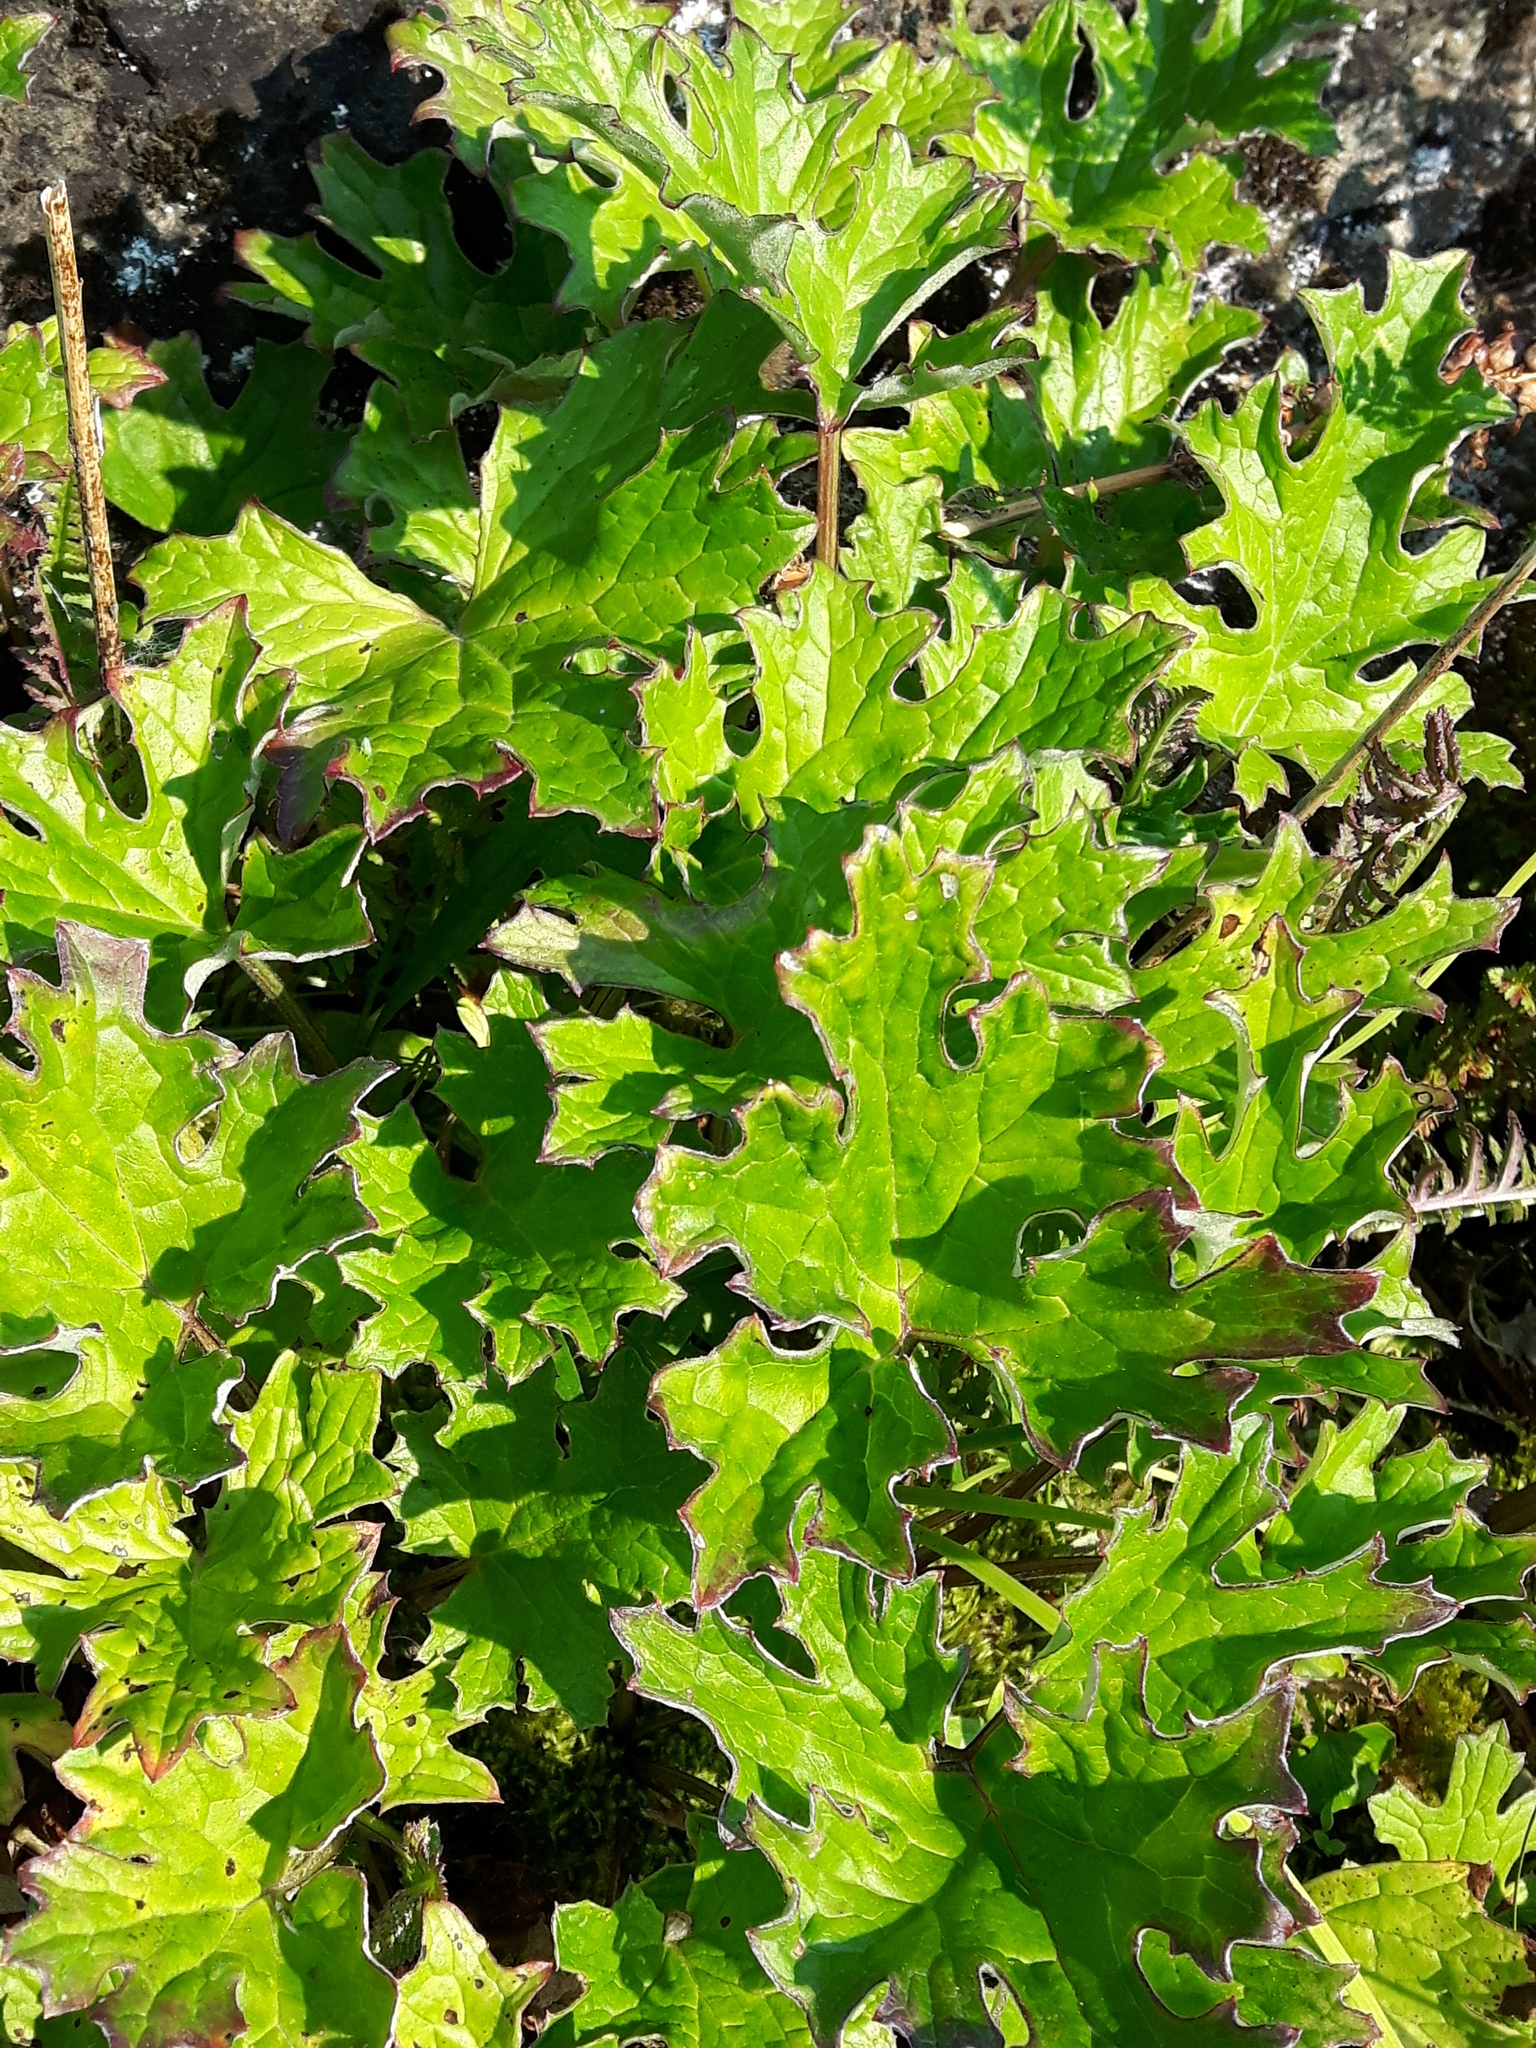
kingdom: Plantae
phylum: Tracheophyta
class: Magnoliopsida
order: Asterales
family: Asteraceae
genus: Petasites
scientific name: Petasites frigidus
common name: Arctic butterbur
